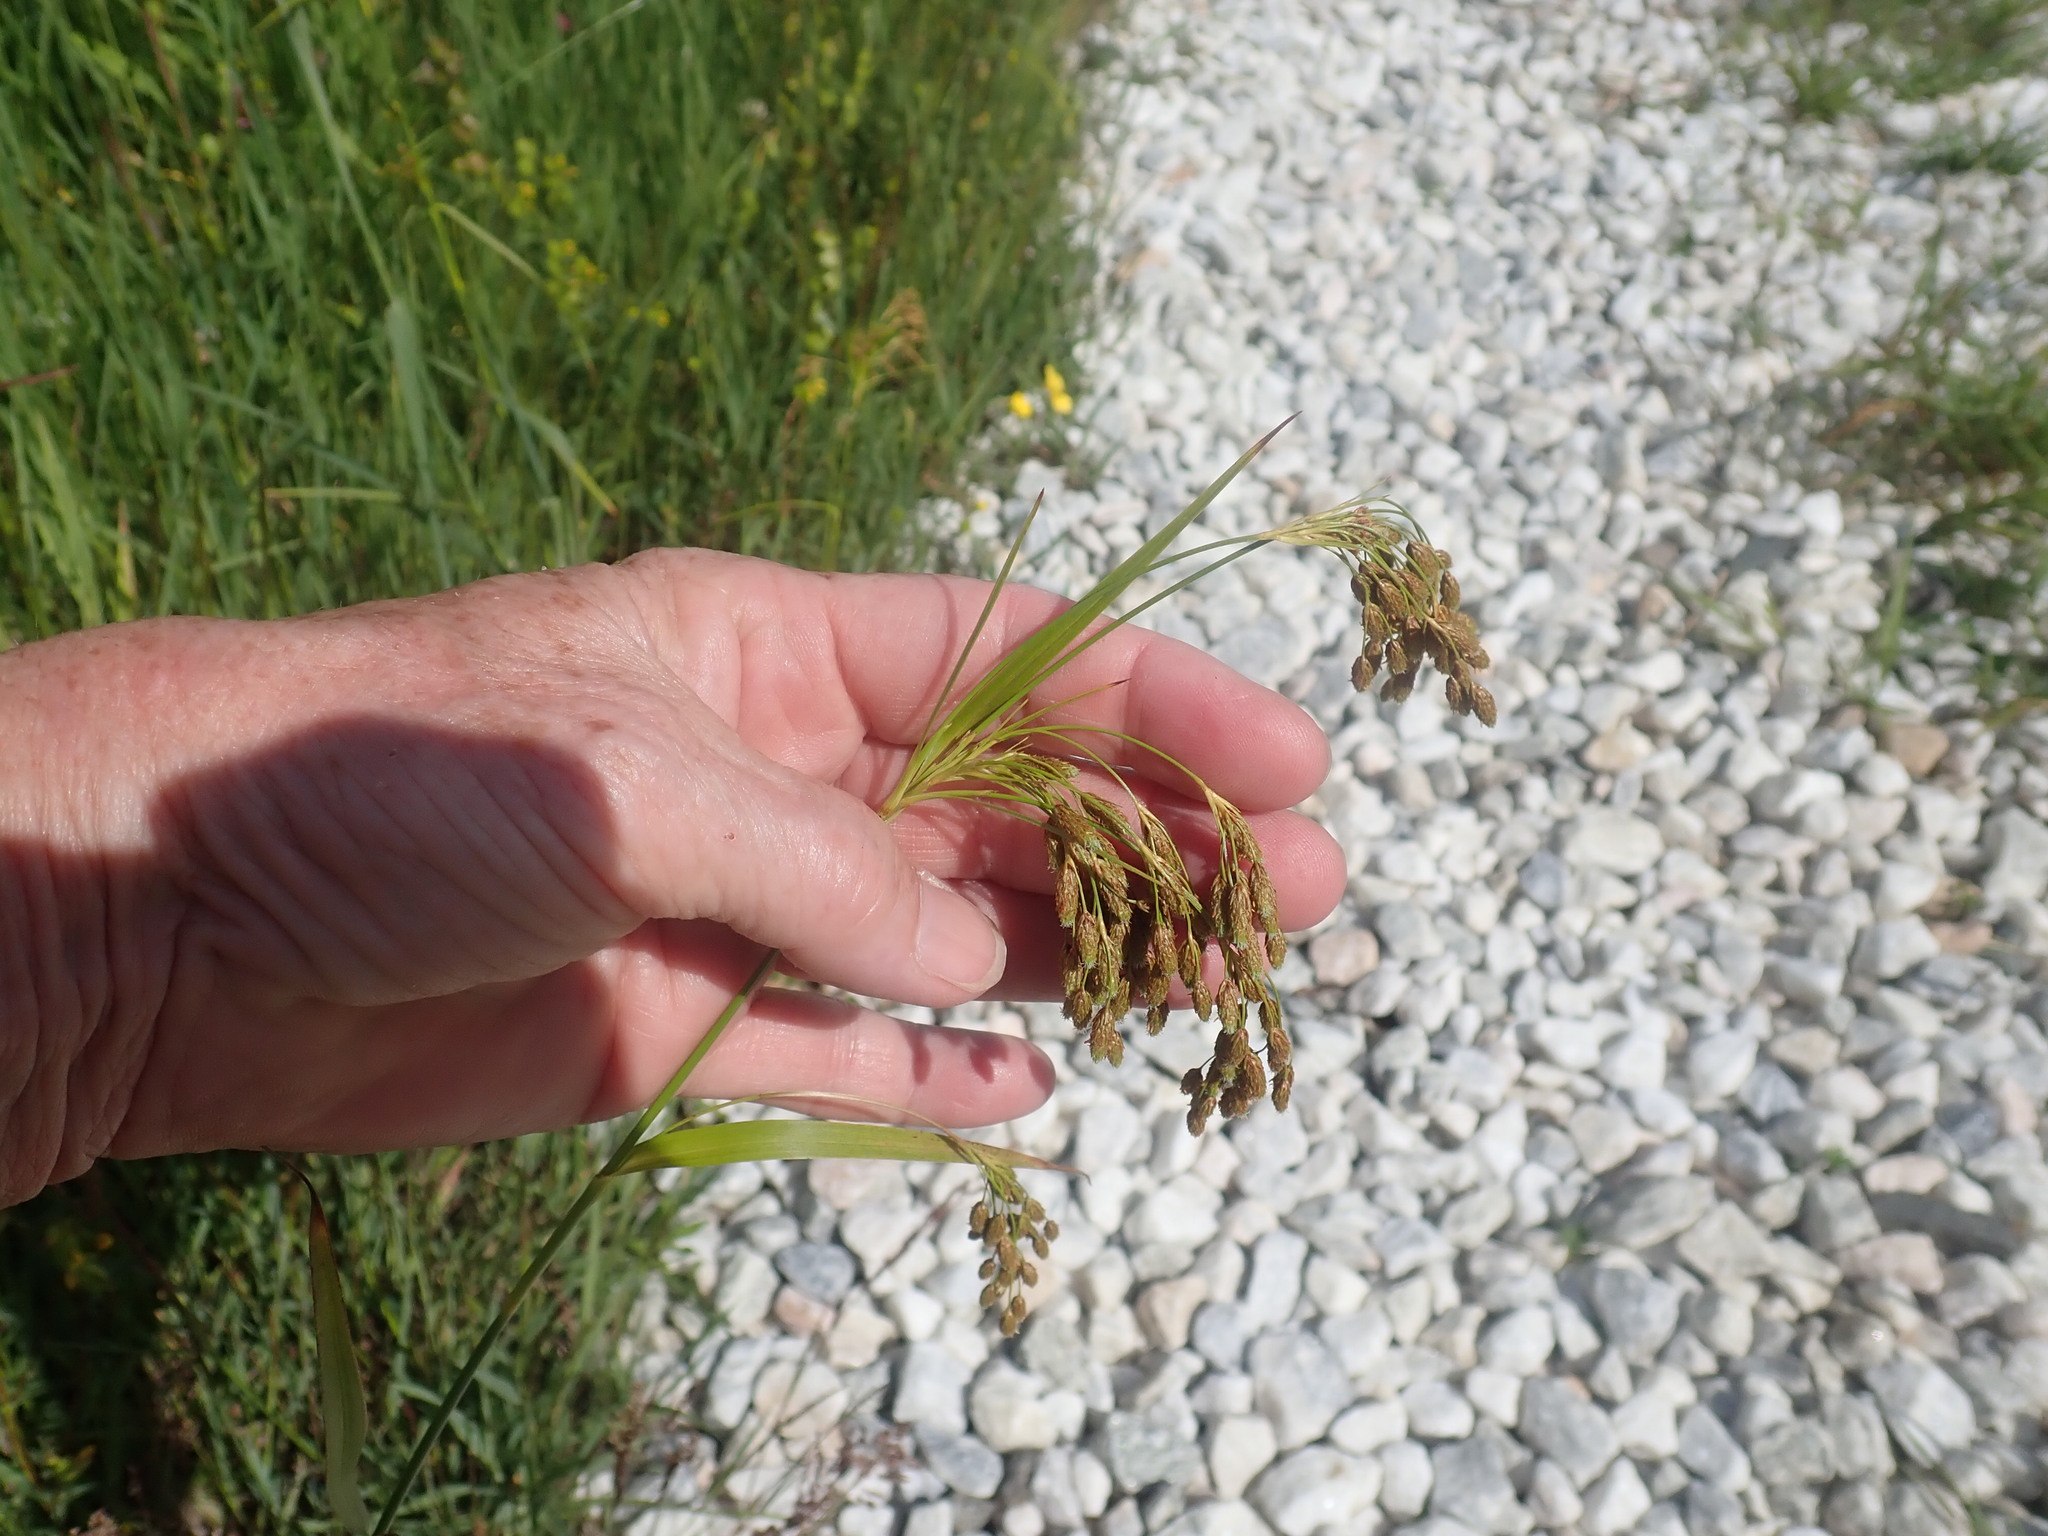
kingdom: Plantae
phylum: Tracheophyta
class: Liliopsida
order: Poales
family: Cyperaceae
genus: Scirpus
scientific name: Scirpus pendulus
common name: Nodding bulrush
